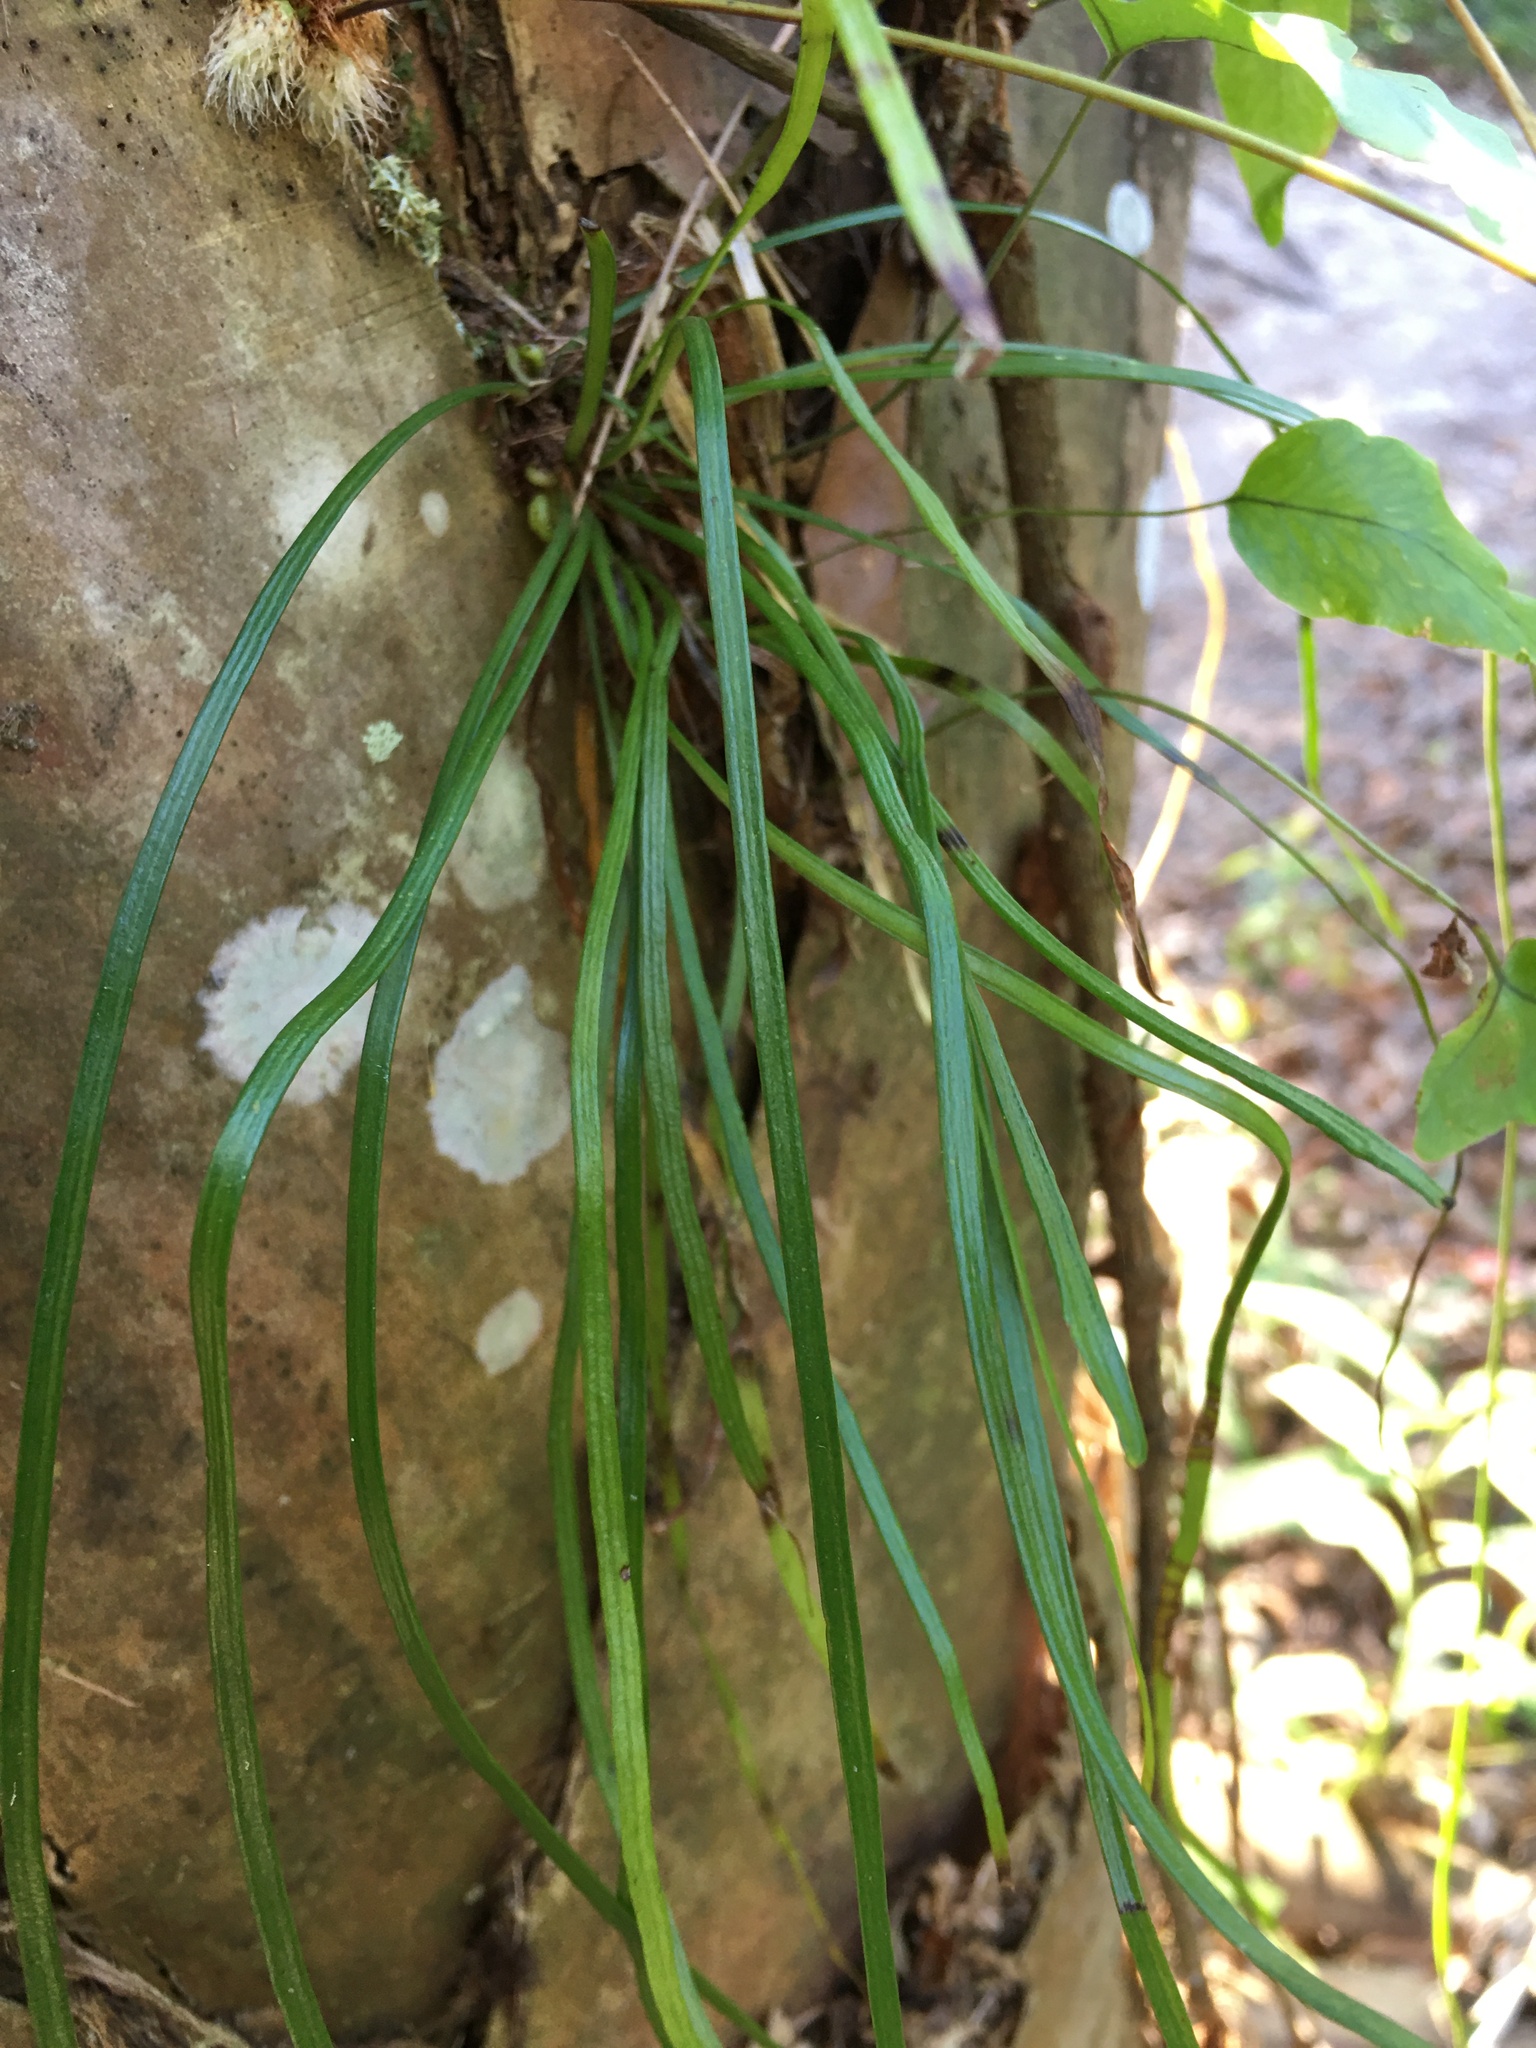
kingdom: Plantae
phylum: Tracheophyta
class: Polypodiopsida
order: Polypodiales
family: Pteridaceae
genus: Vittaria
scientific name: Vittaria lineata
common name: Shoestring fern
